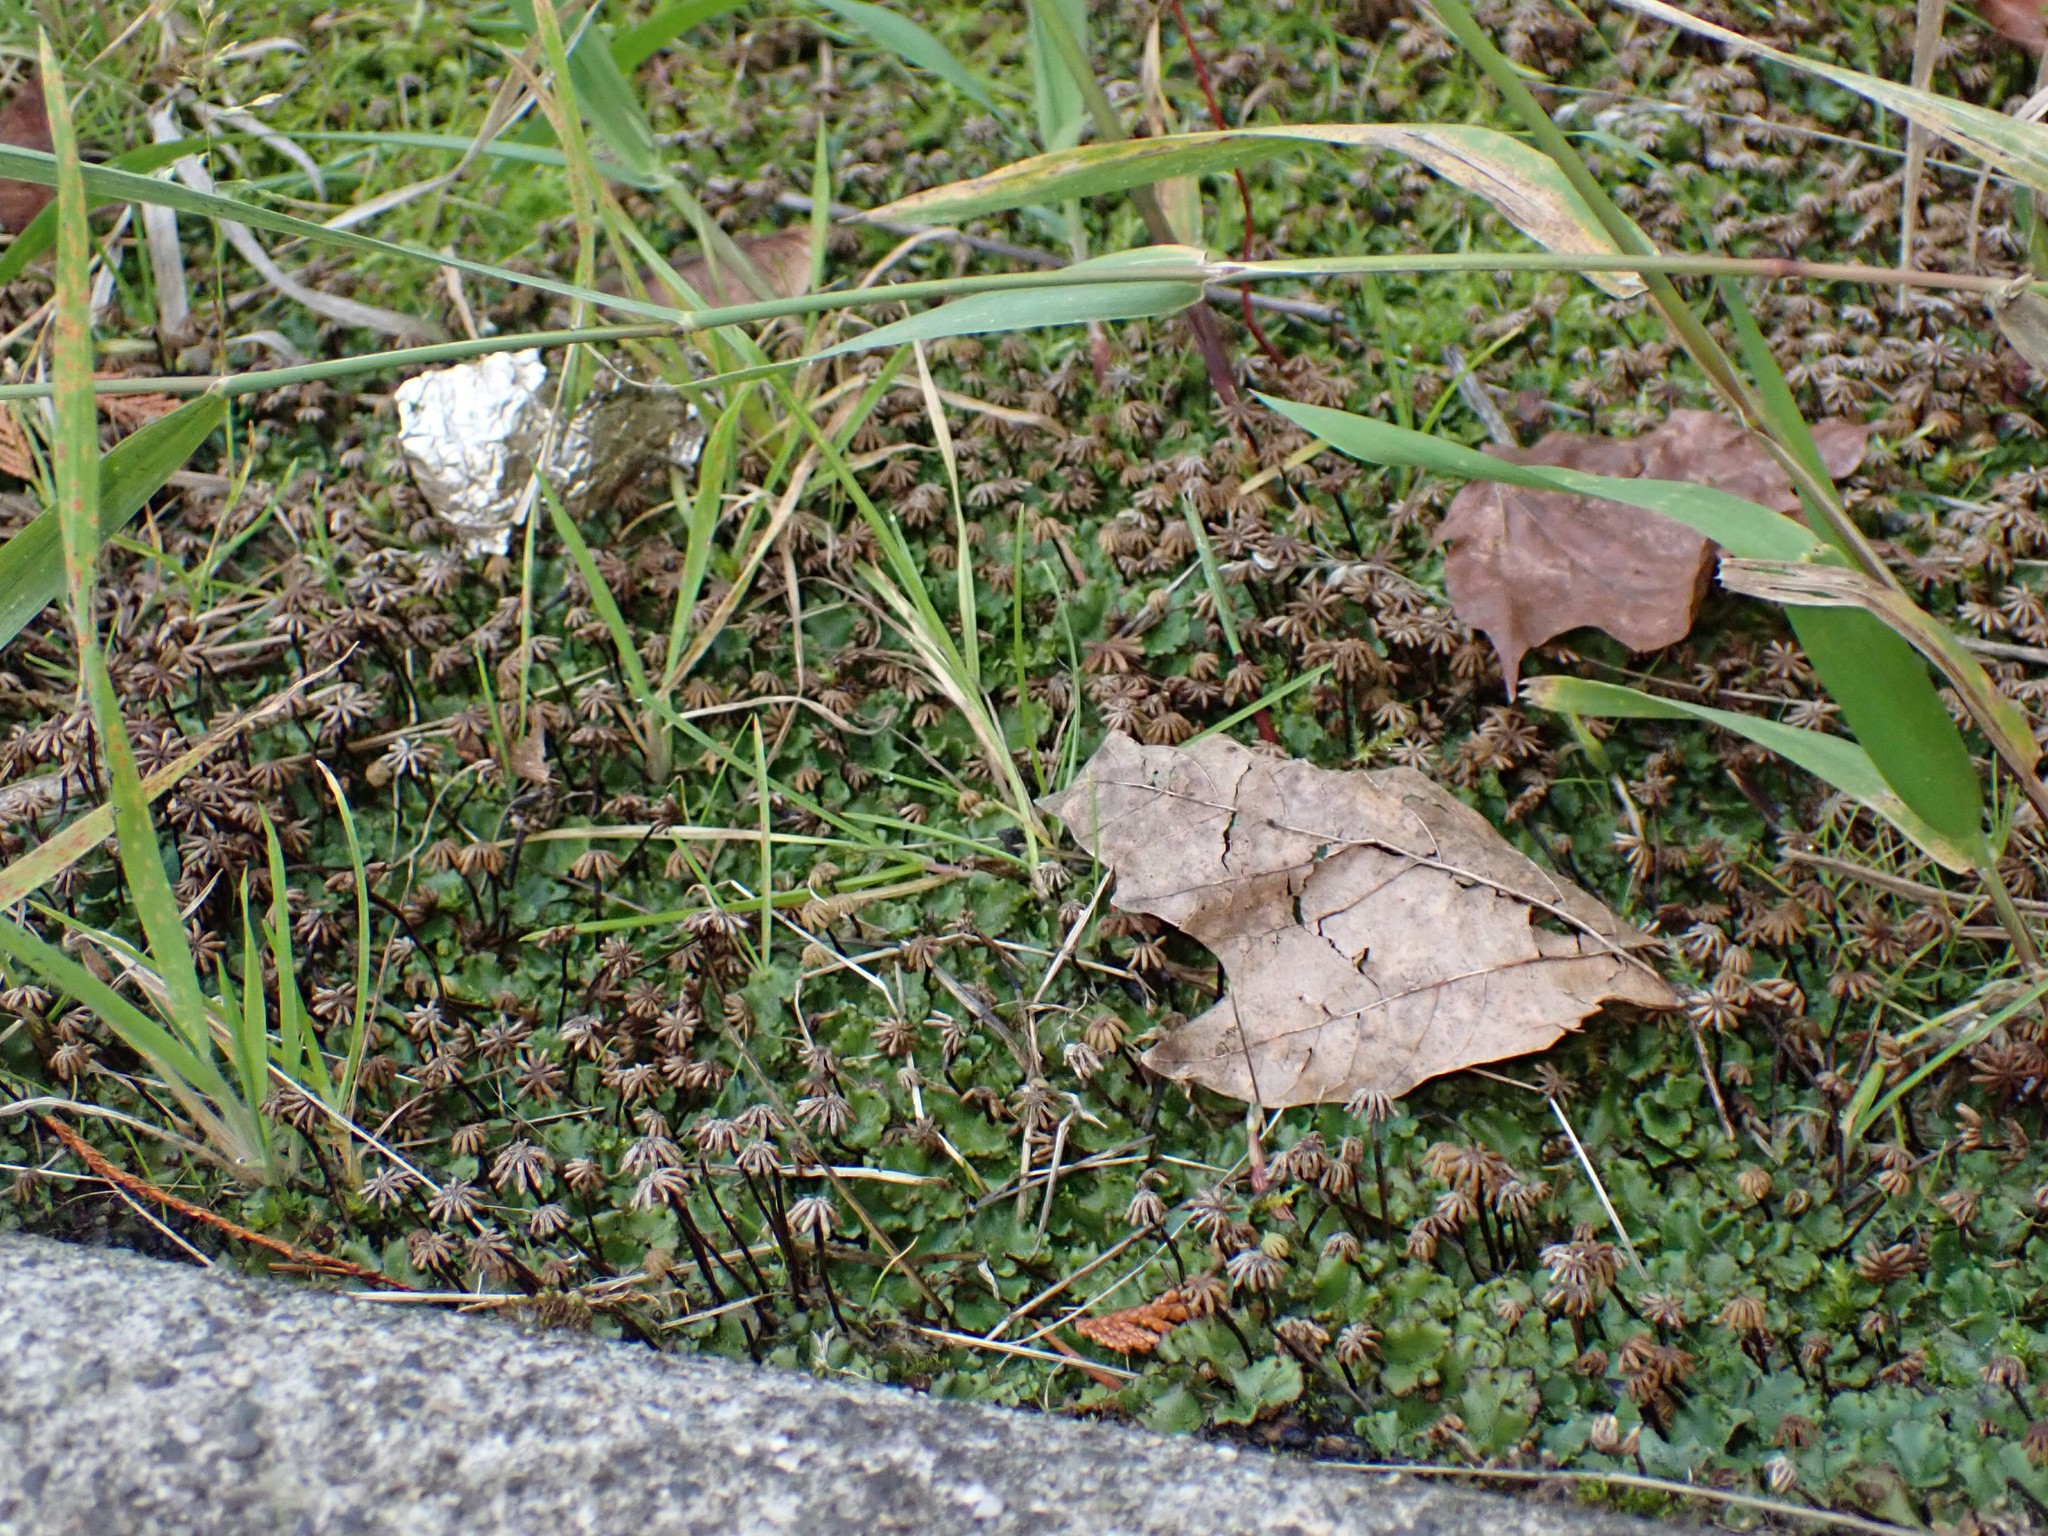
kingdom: Plantae
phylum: Marchantiophyta
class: Marchantiopsida
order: Marchantiales
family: Marchantiaceae
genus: Marchantia
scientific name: Marchantia polymorpha
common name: Common liverwort
